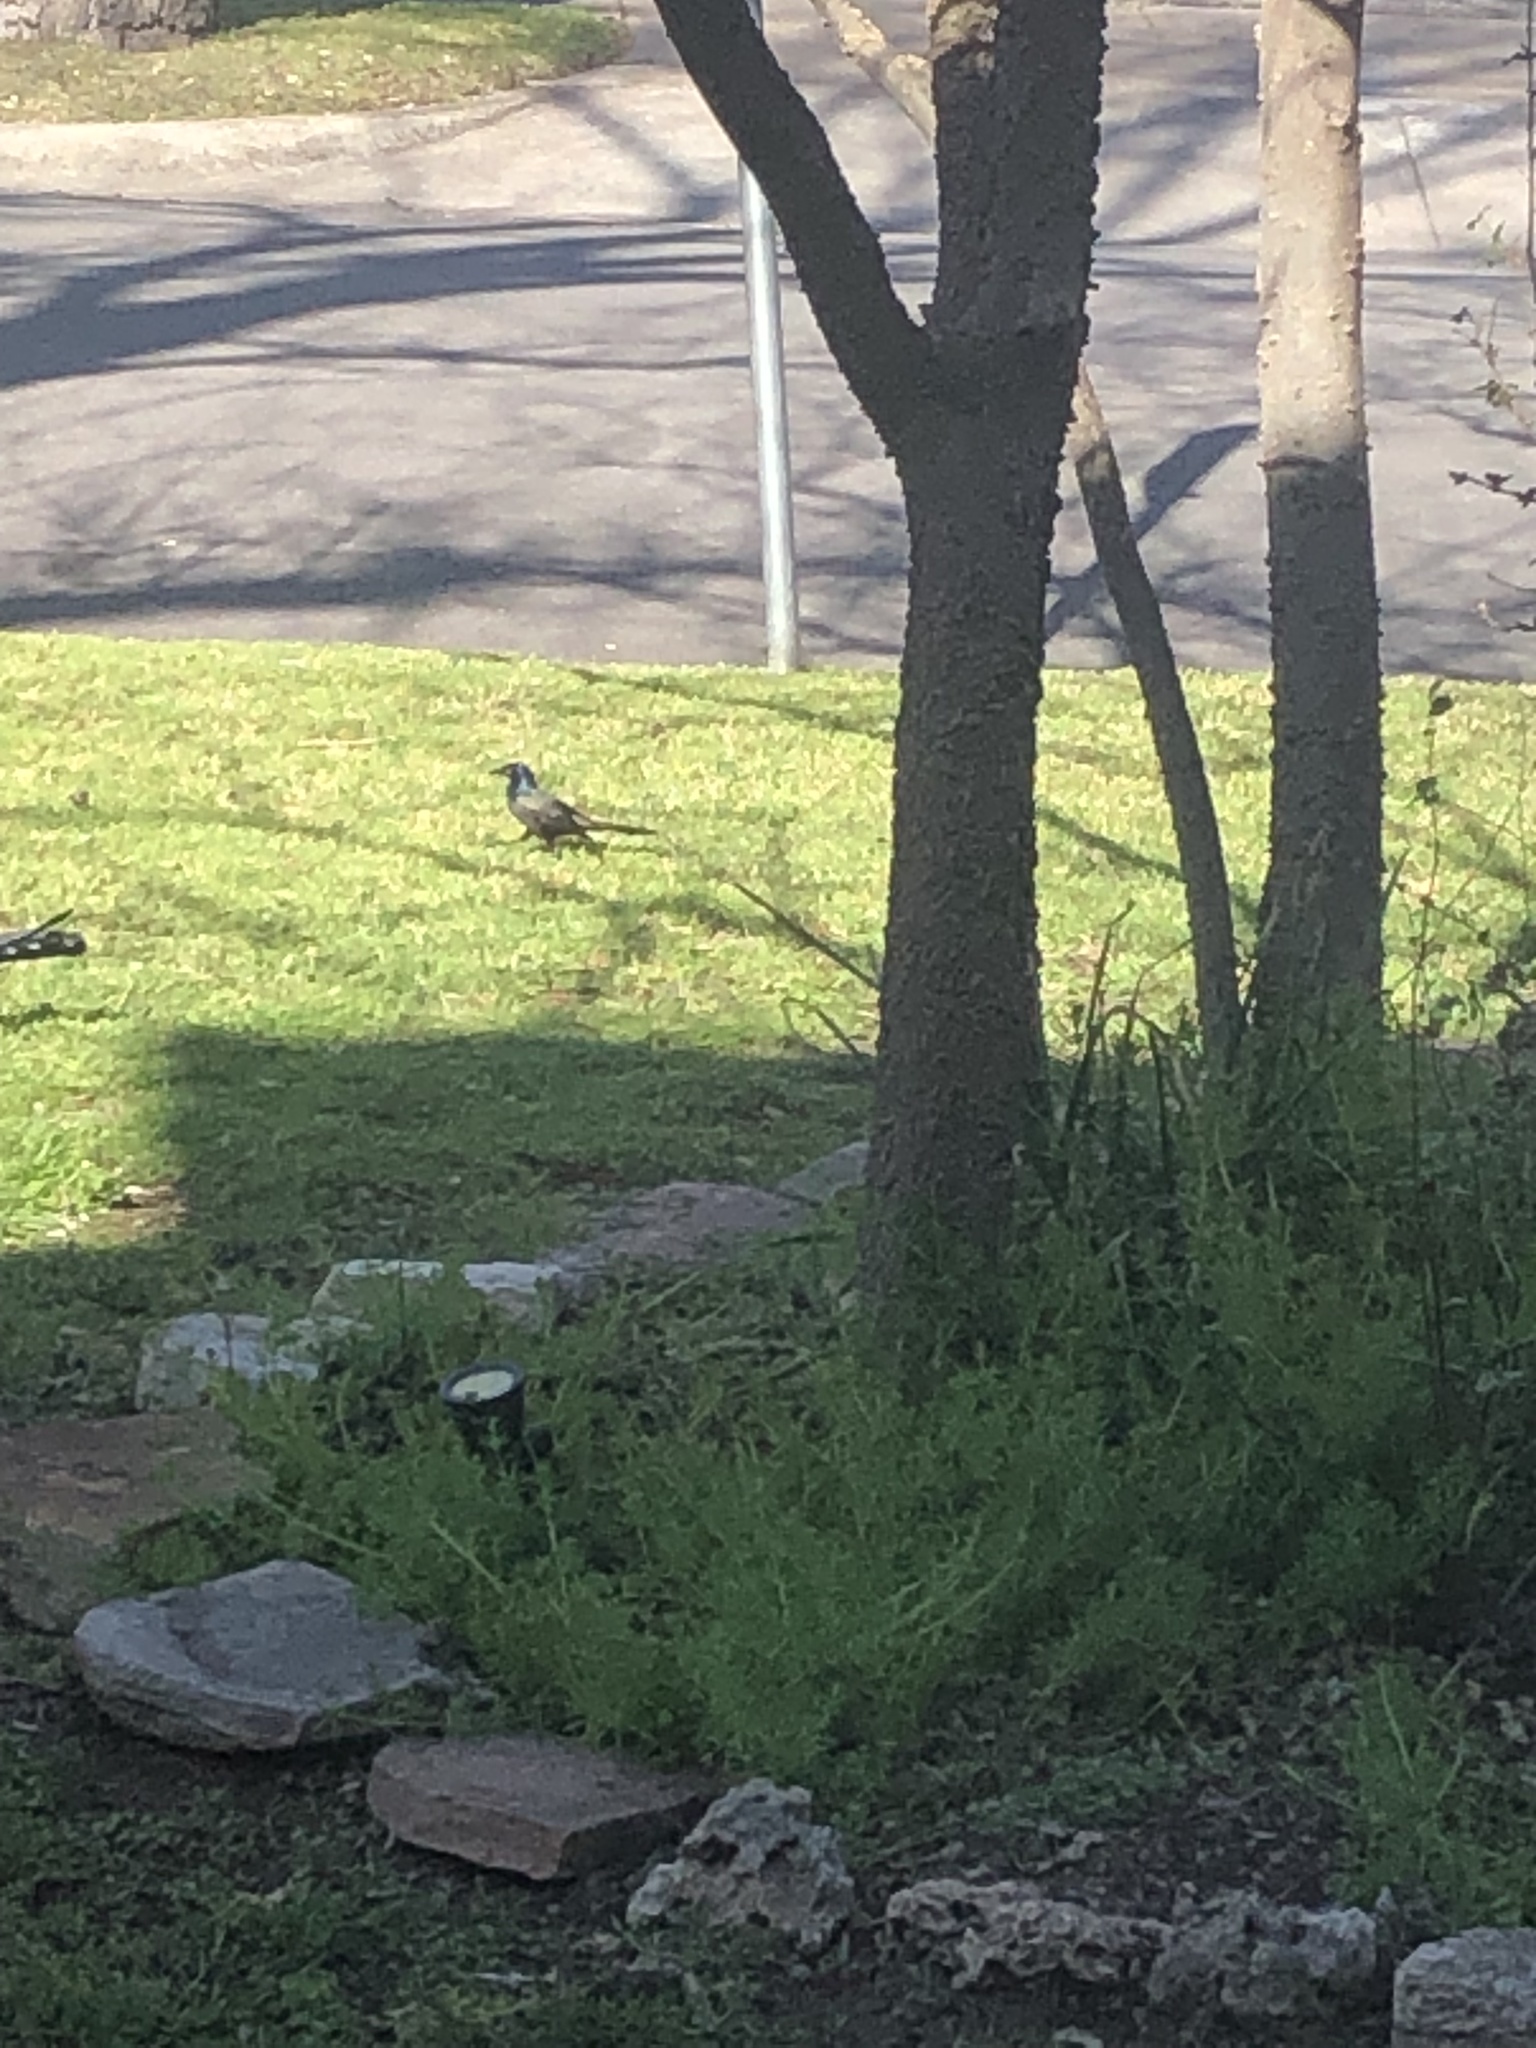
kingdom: Animalia
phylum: Chordata
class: Aves
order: Passeriformes
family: Icteridae
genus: Quiscalus
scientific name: Quiscalus quiscula
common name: Common grackle
